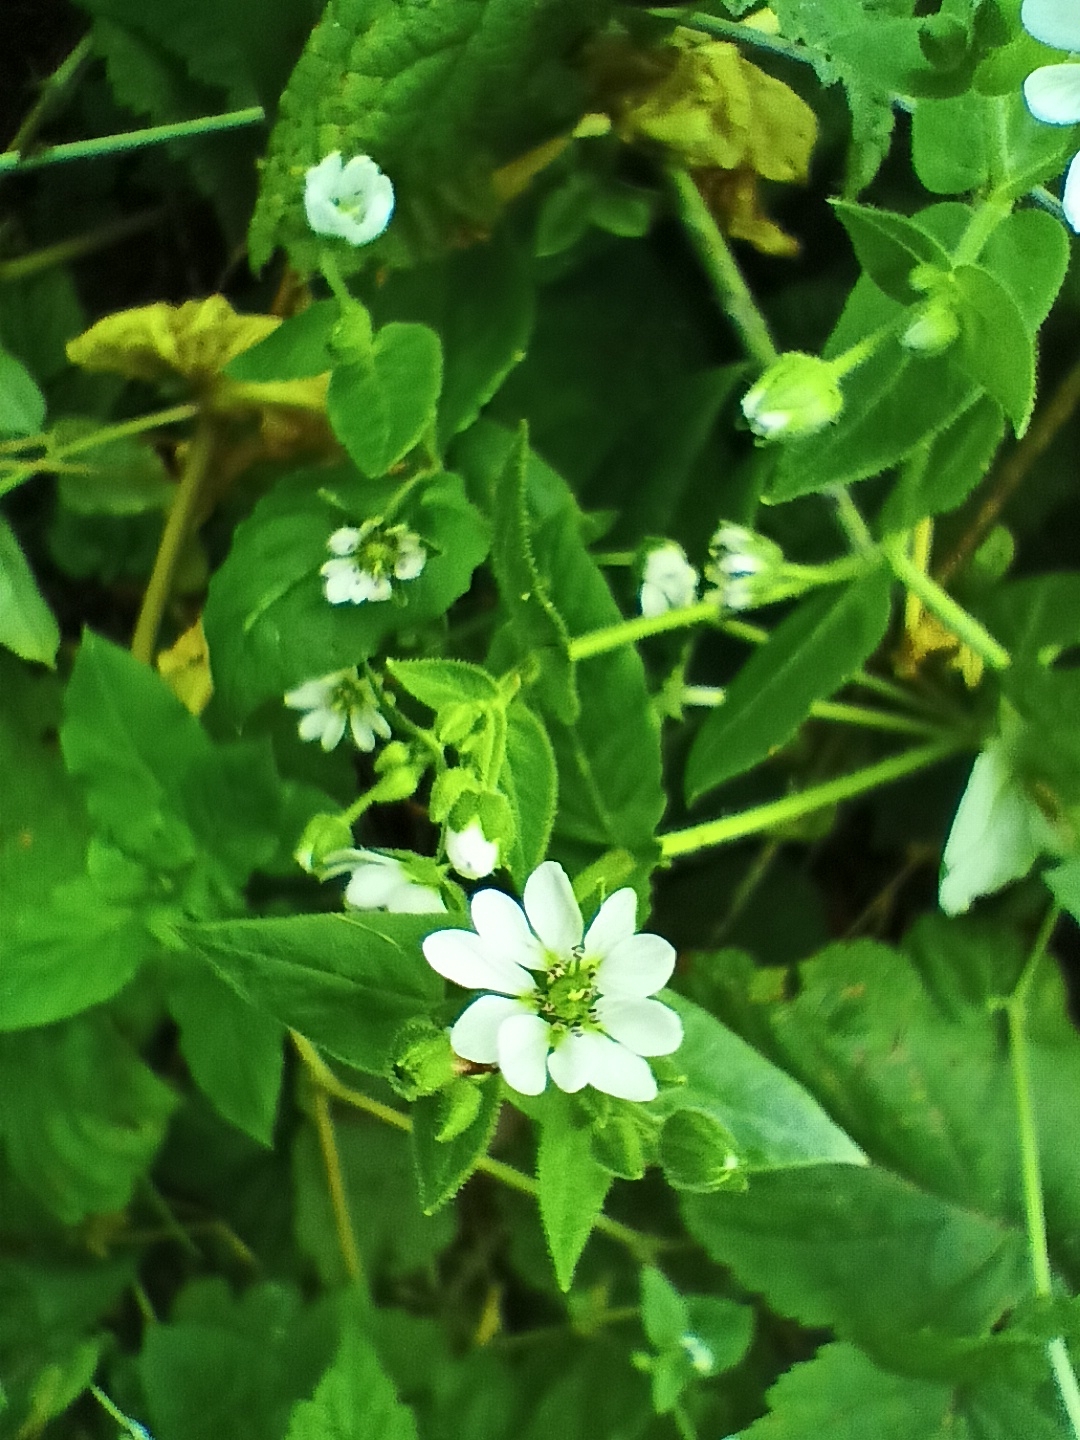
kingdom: Plantae
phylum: Tracheophyta
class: Magnoliopsida
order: Caryophyllales
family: Caryophyllaceae
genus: Stellaria
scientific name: Stellaria aquatica
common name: Water chickweed
